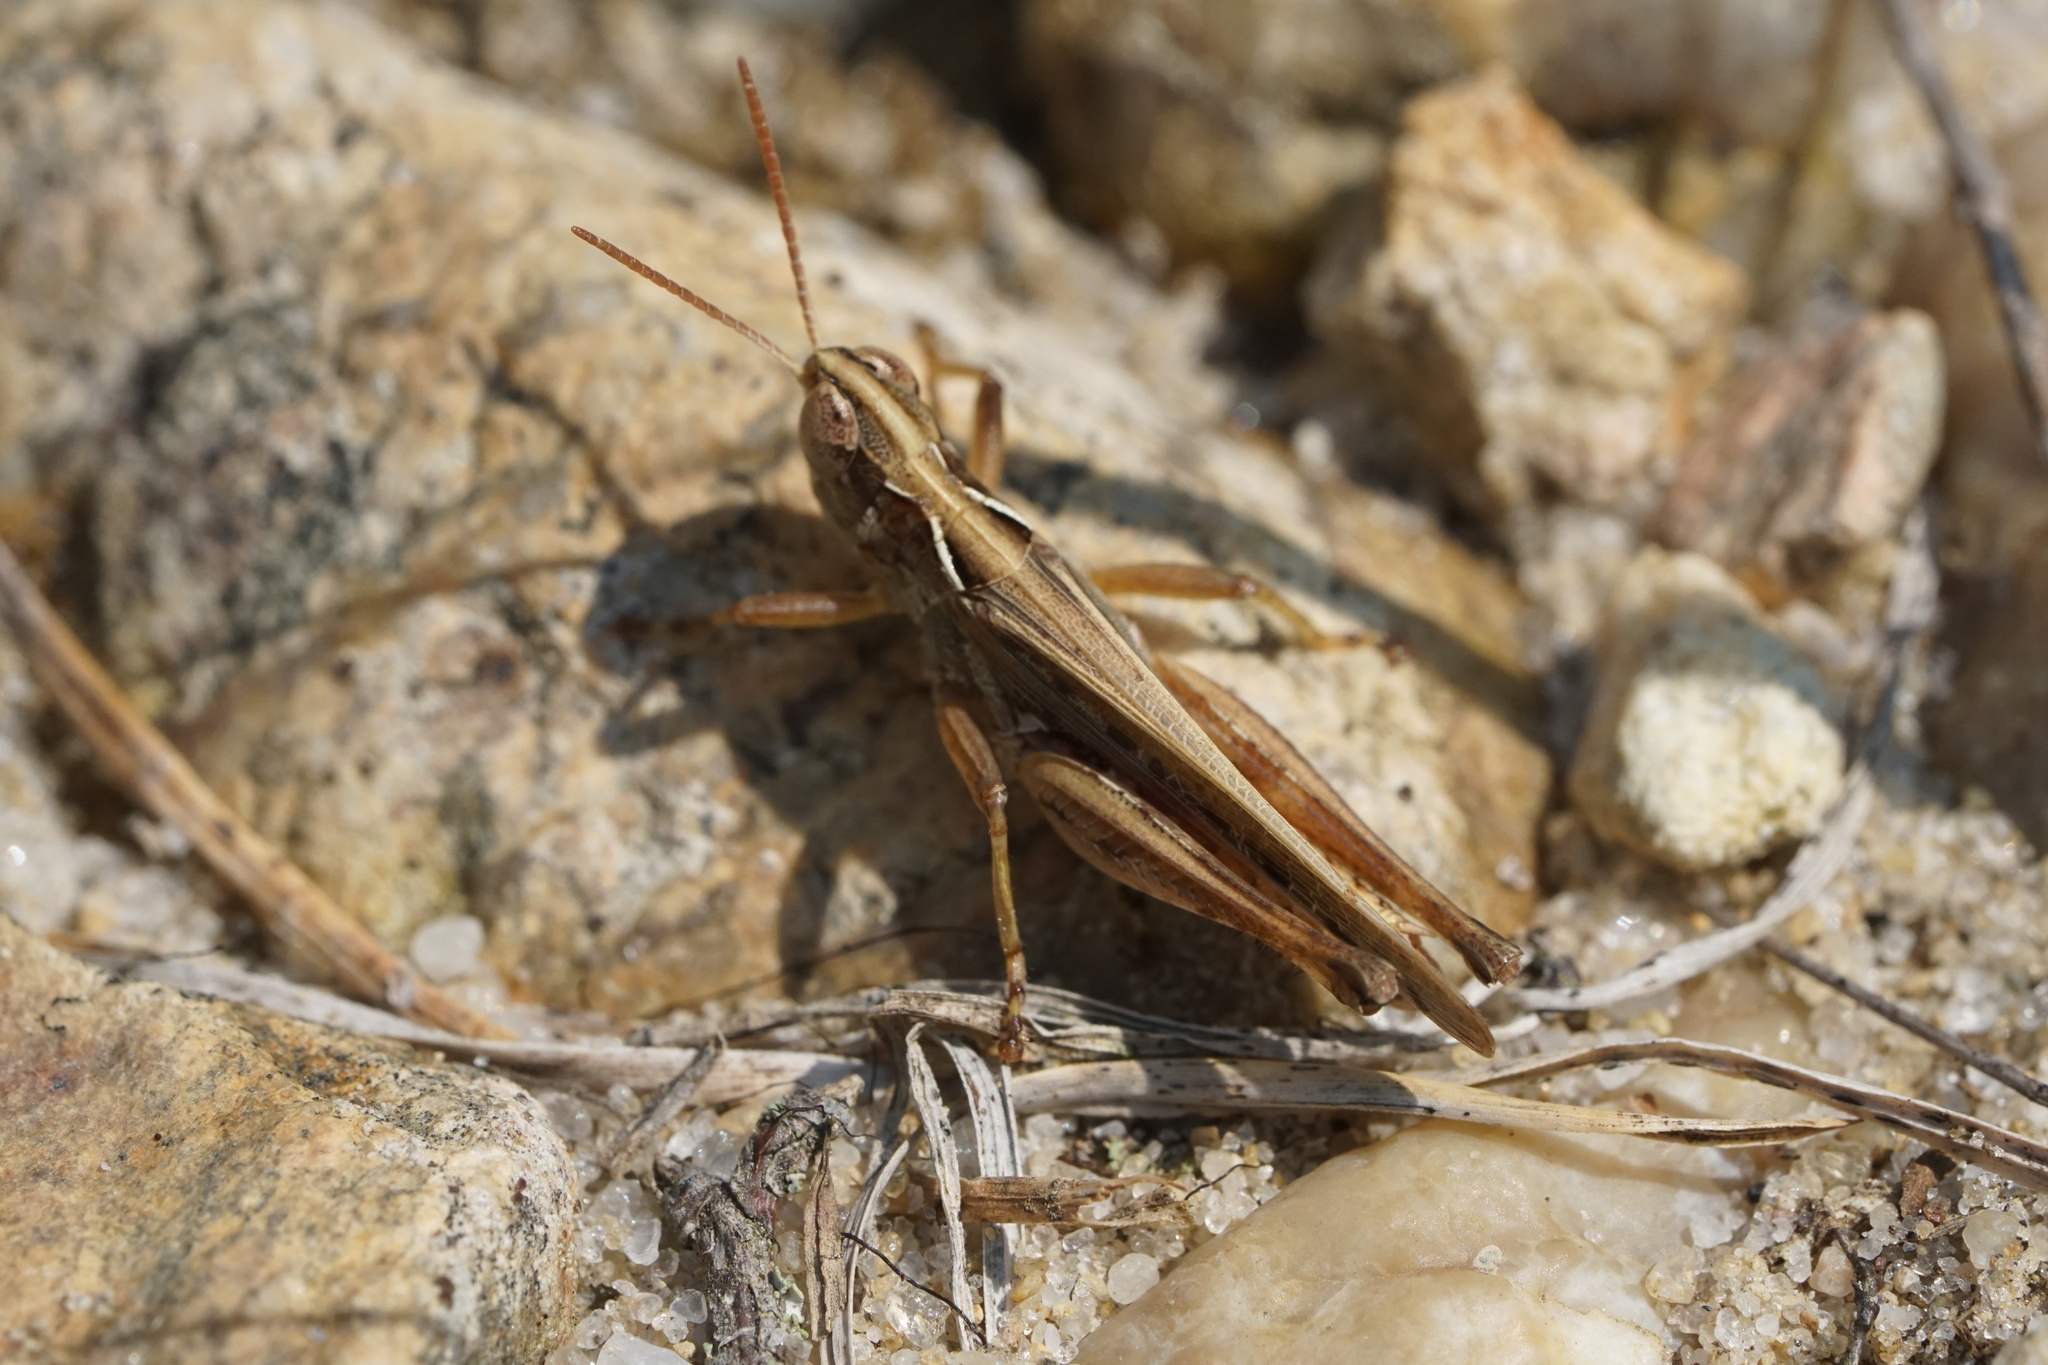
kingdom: Animalia
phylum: Arthropoda
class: Insecta
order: Orthoptera
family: Acrididae
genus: Orphulella
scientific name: Orphulella pelidna
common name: Spotted-wing grasshopper
